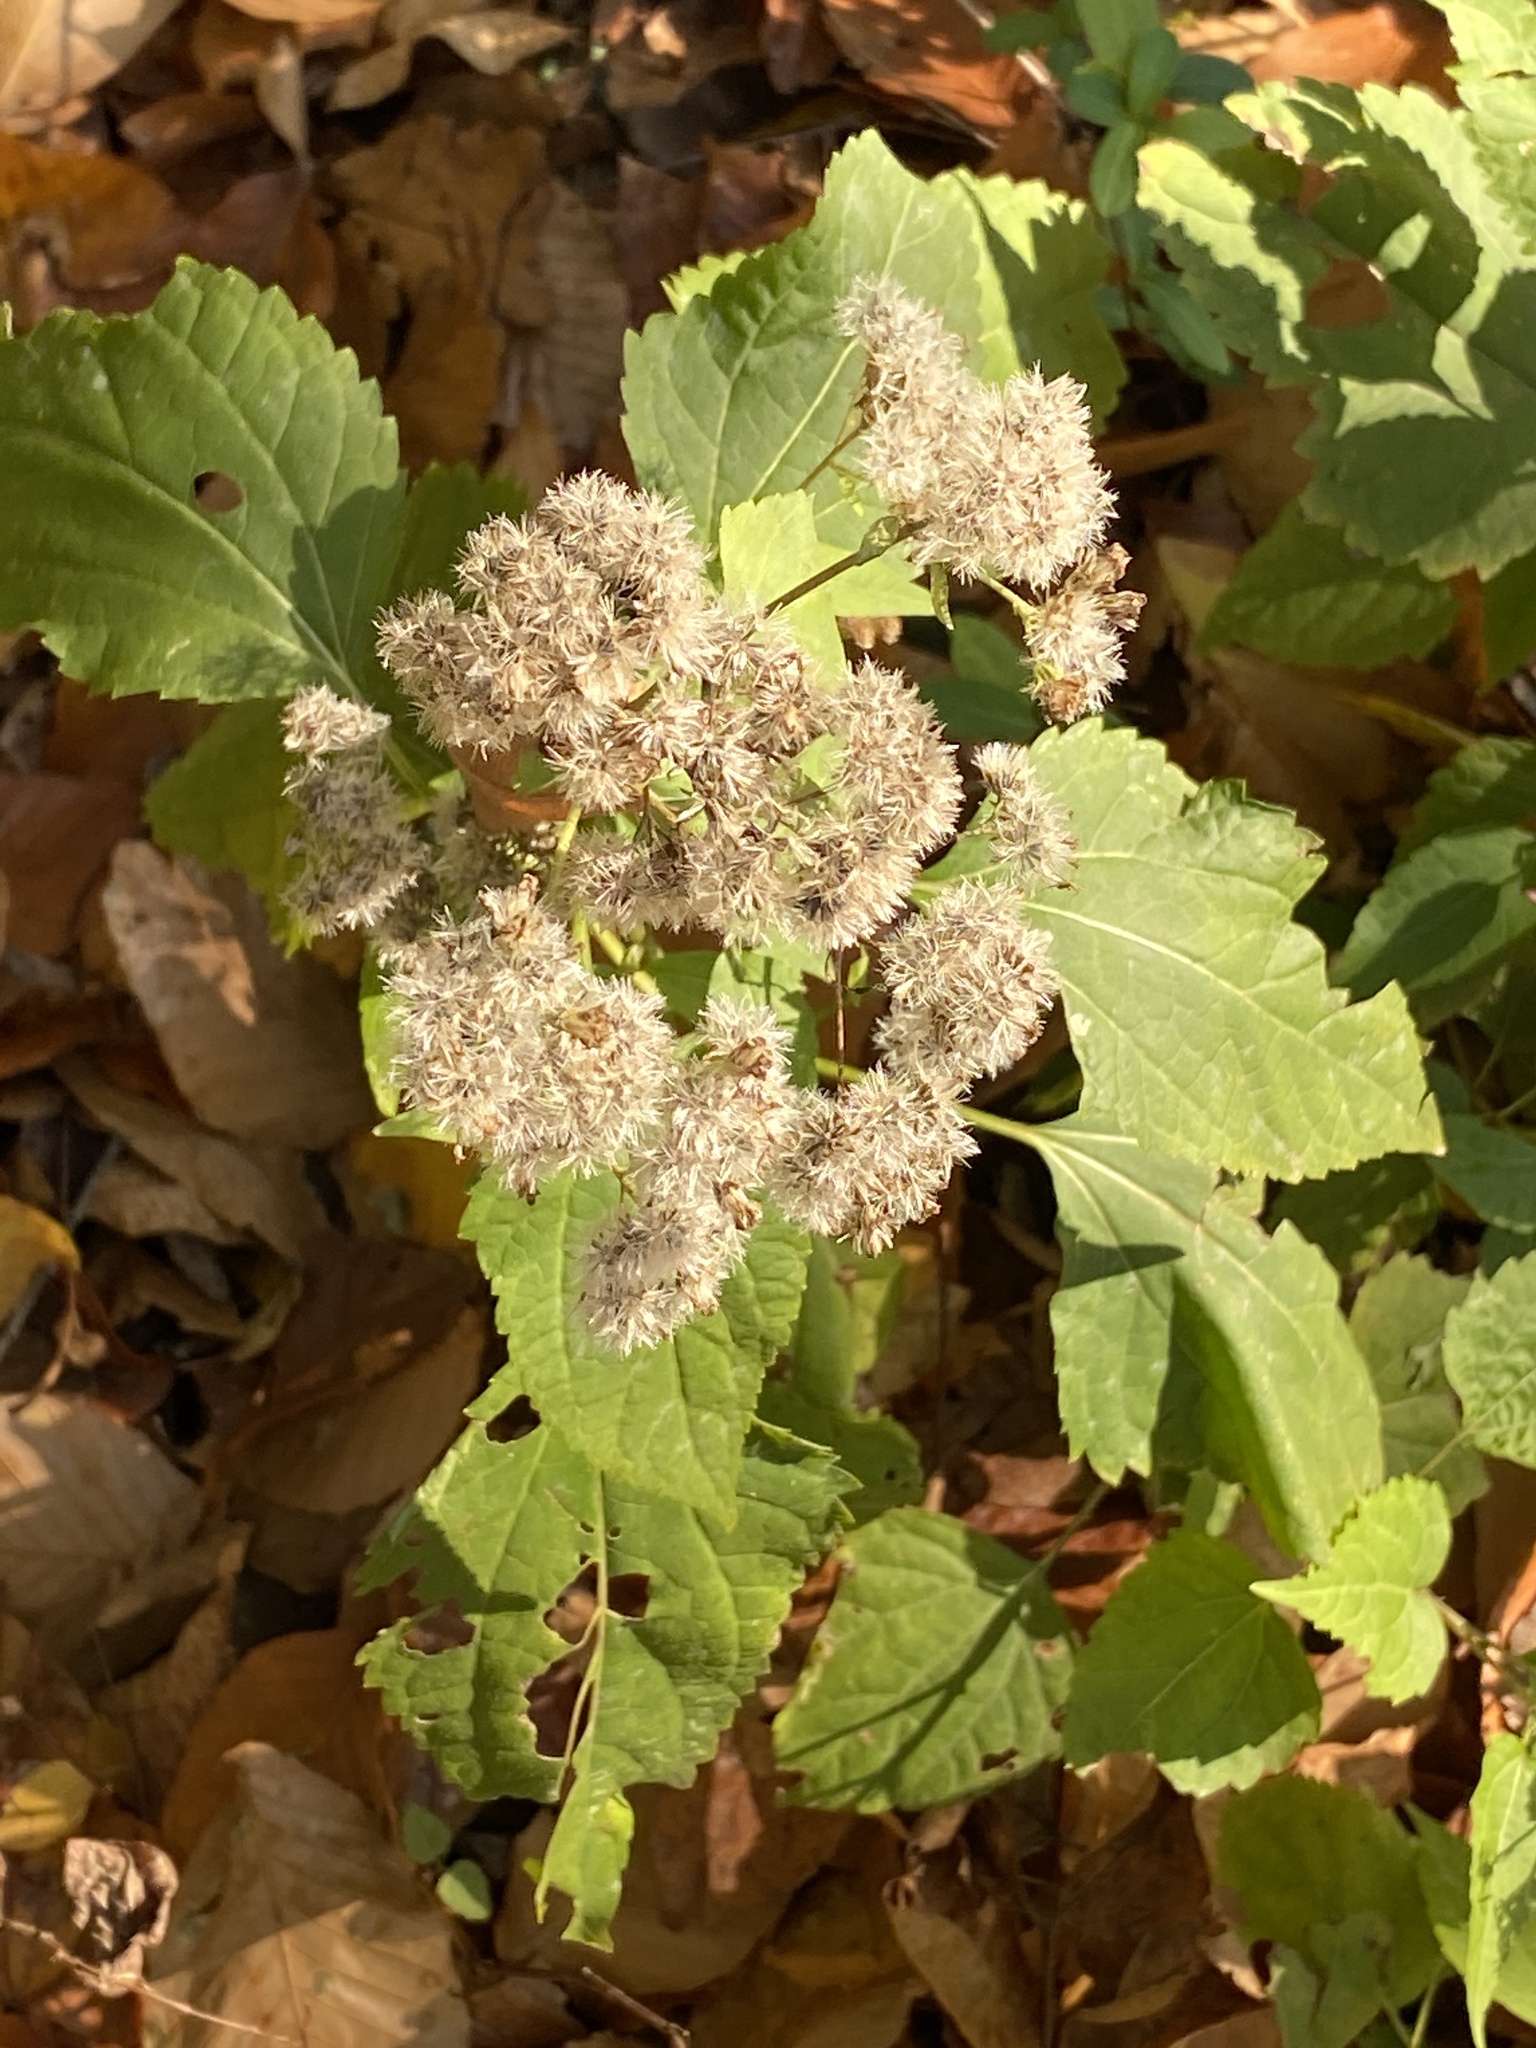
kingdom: Plantae
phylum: Tracheophyta
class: Magnoliopsida
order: Asterales
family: Asteraceae
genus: Ageratina
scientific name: Ageratina altissima
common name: White snakeroot
